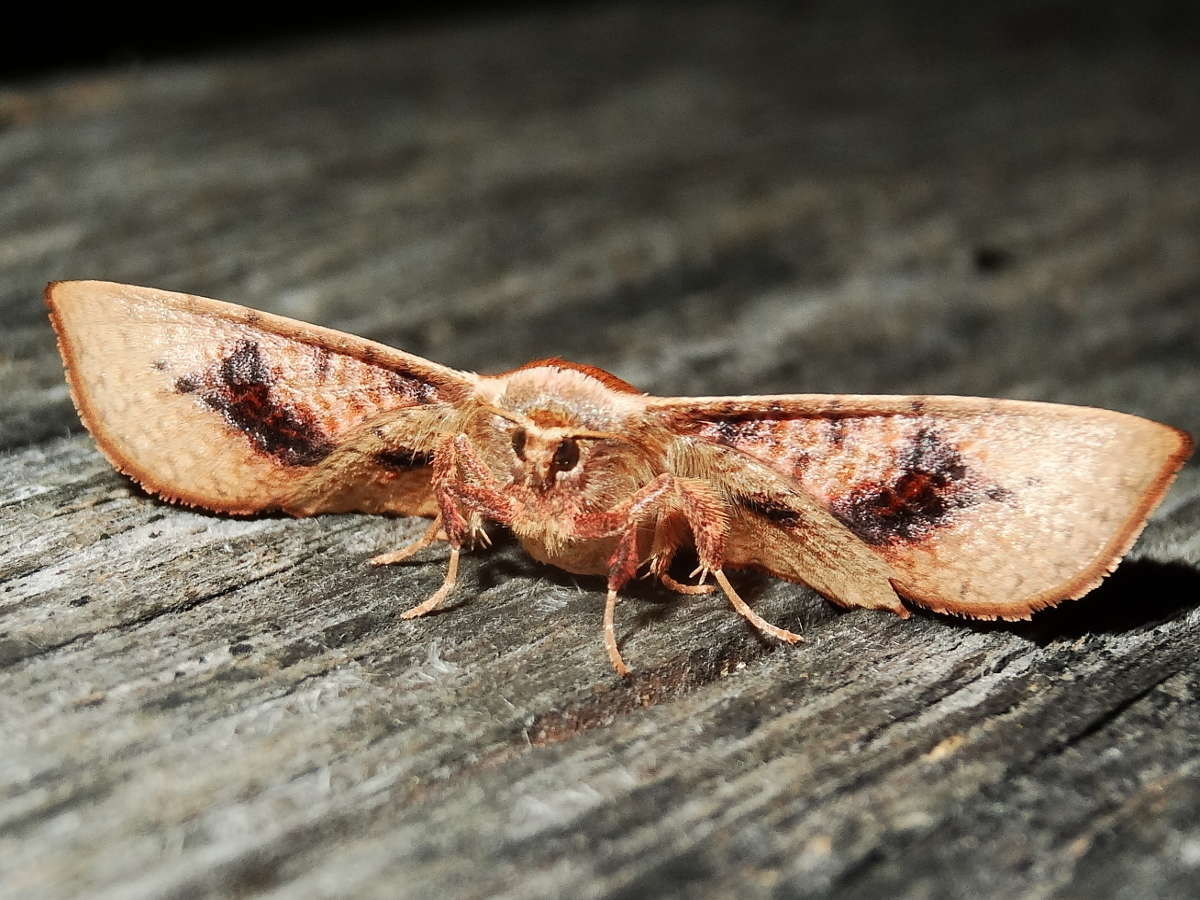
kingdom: Animalia
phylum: Arthropoda
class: Insecta
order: Lepidoptera
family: Thyrididae
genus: Aglaopus
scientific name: Aglaopus pyrrhata
